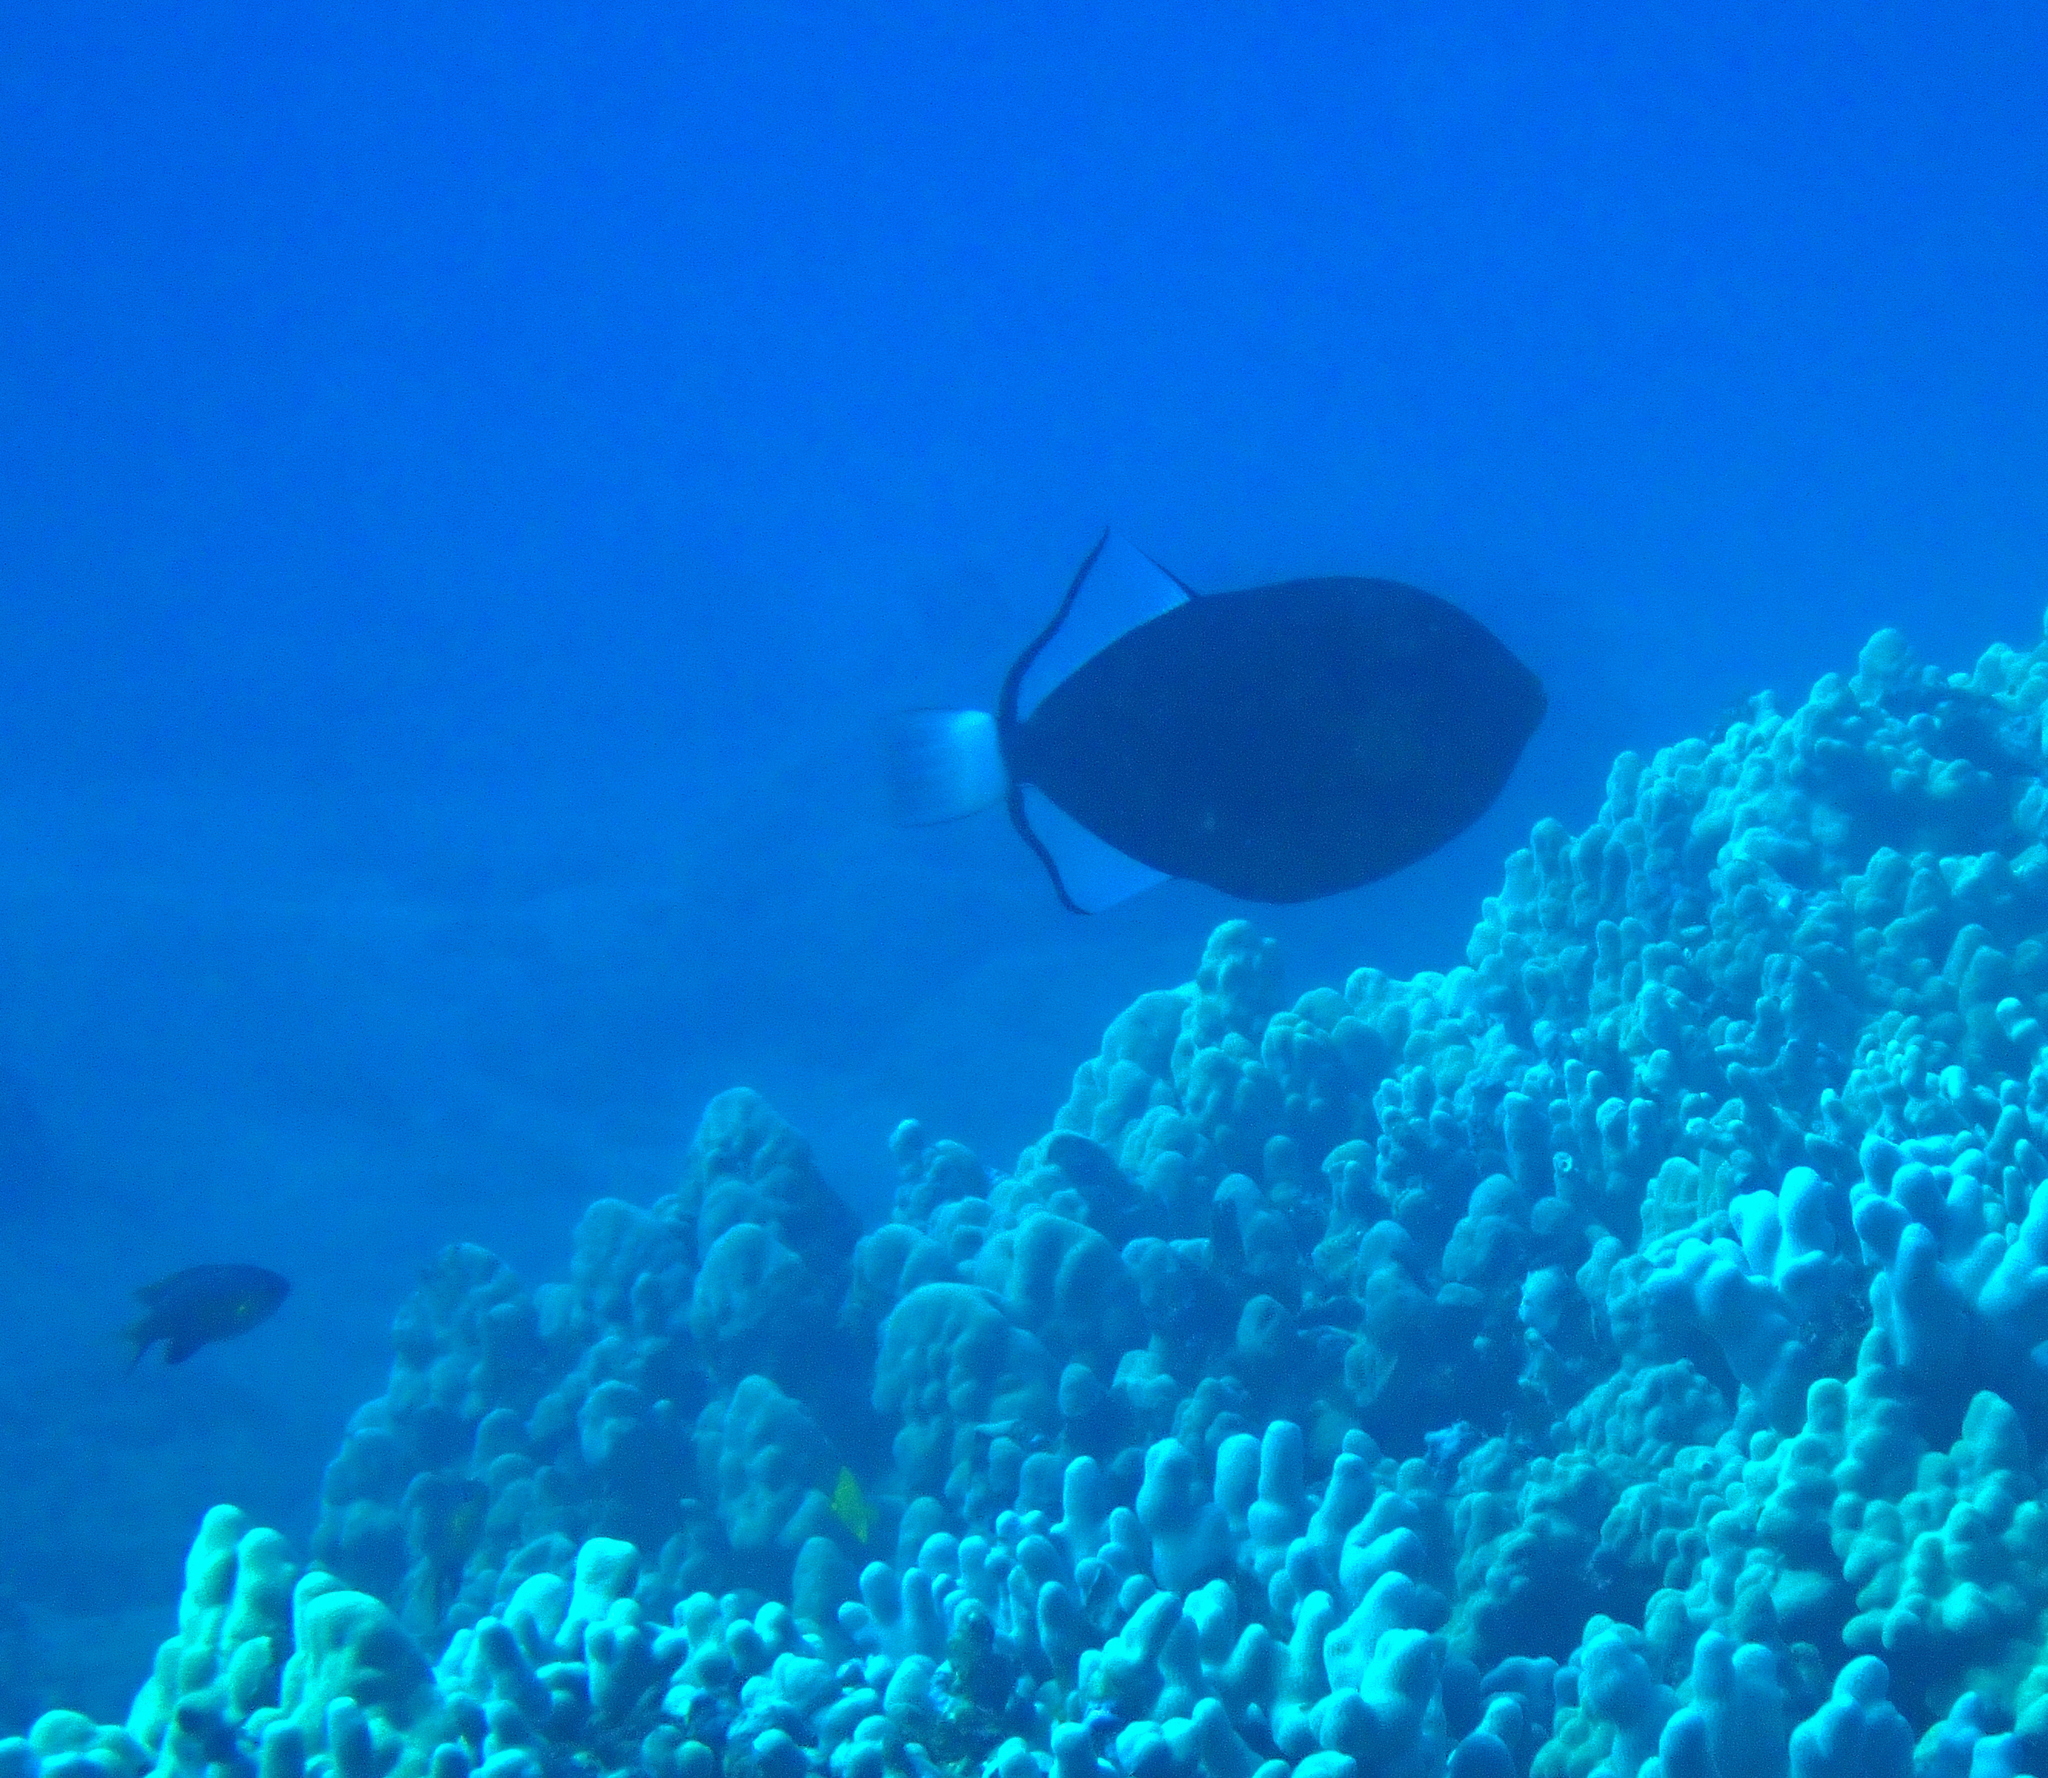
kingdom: Animalia
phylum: Chordata
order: Tetraodontiformes
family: Balistidae
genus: Melichthys
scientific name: Melichthys vidua
